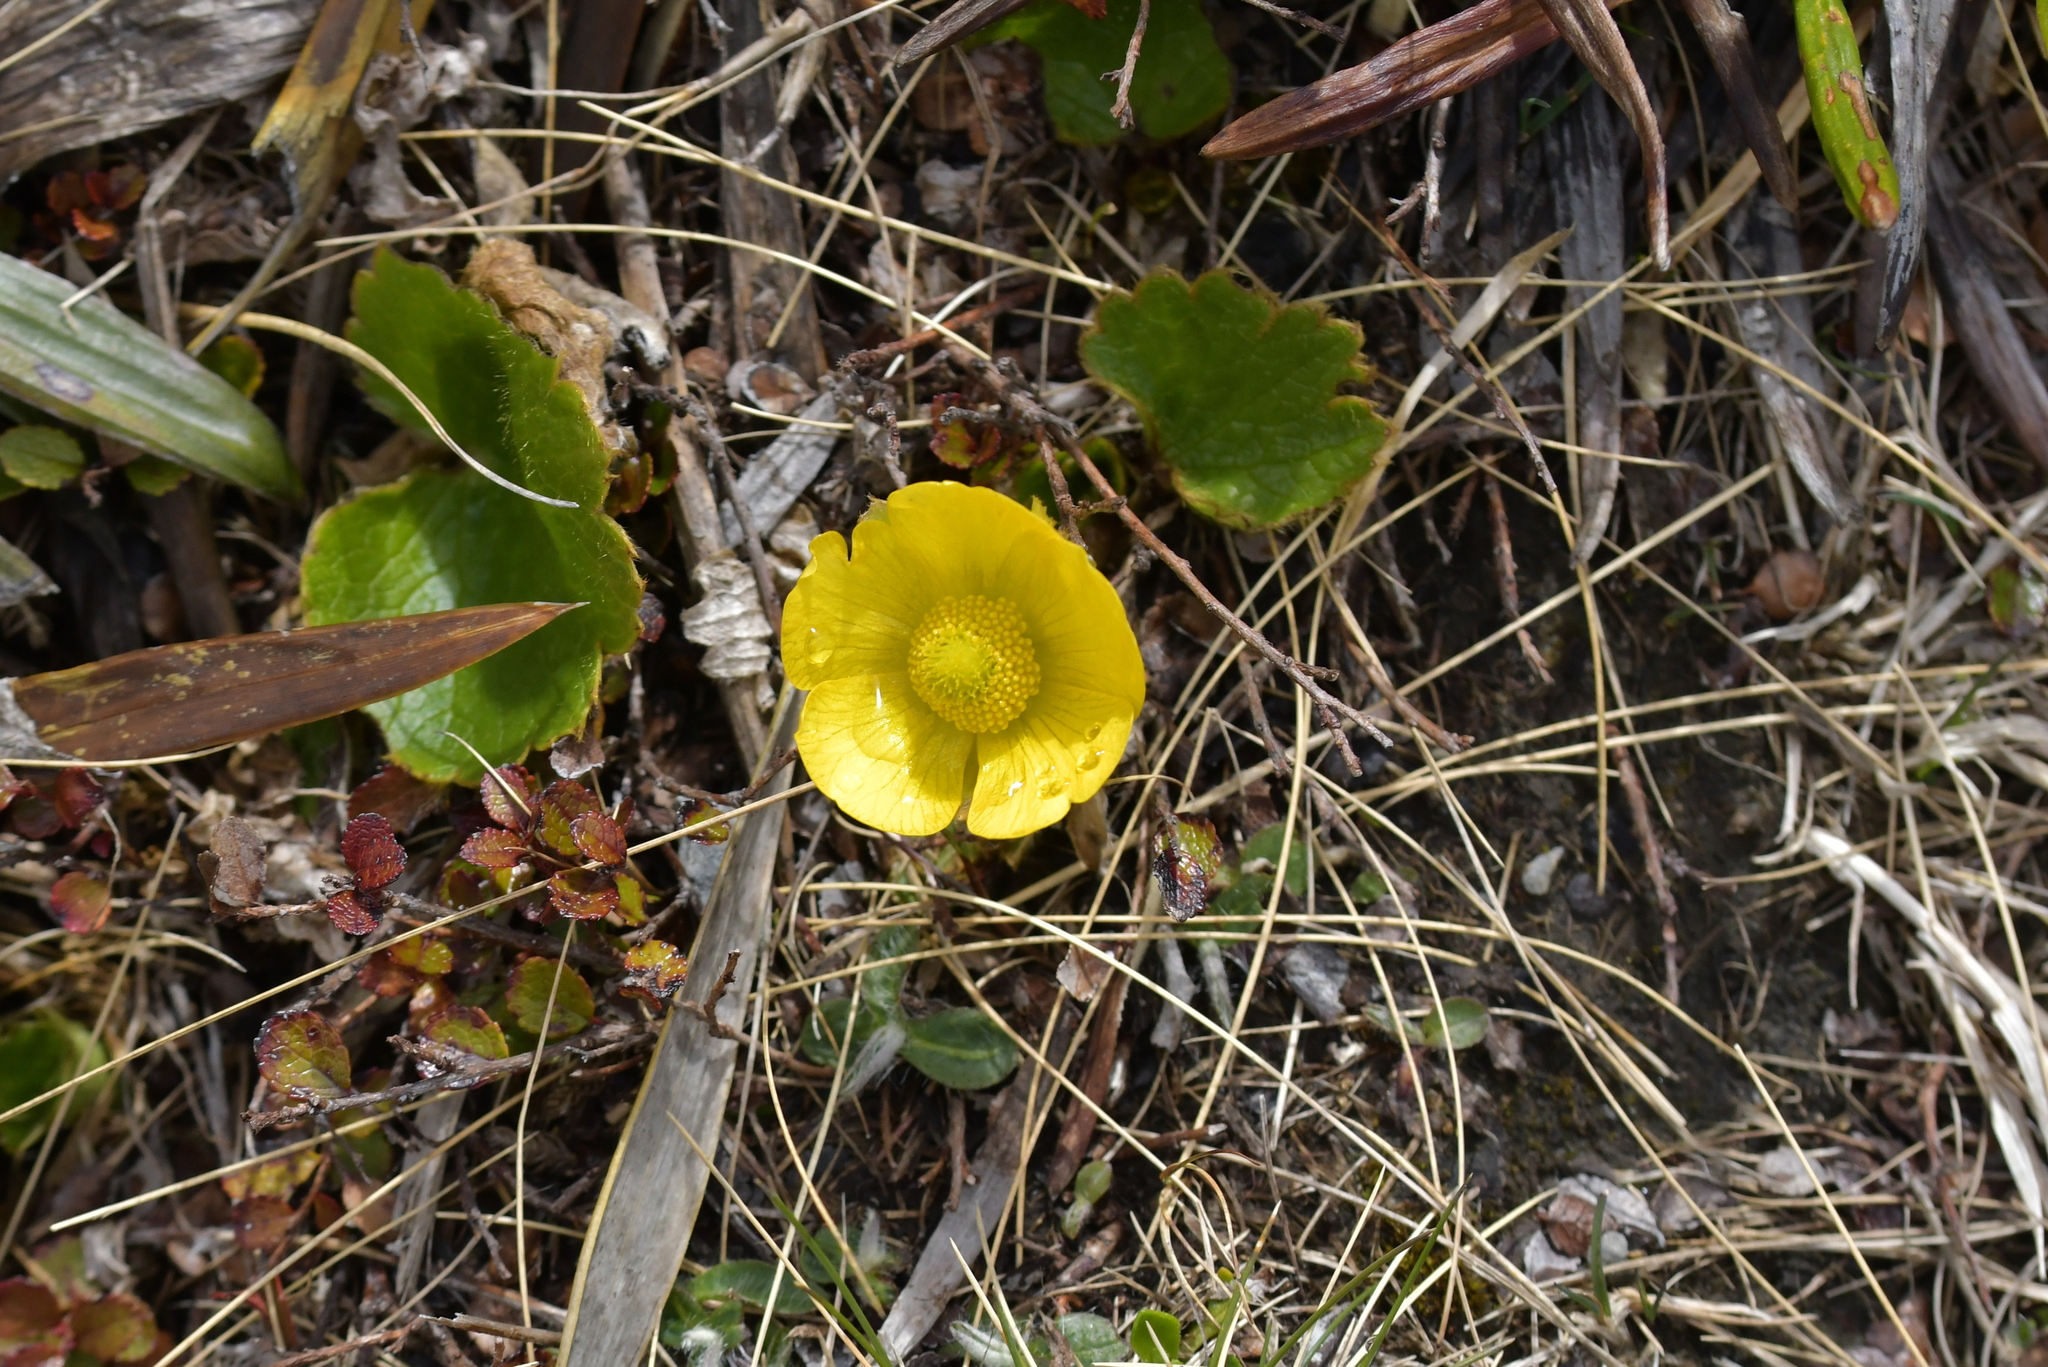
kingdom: Plantae
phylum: Tracheophyta
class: Magnoliopsida
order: Ranunculales
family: Ranunculaceae
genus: Ranunculus
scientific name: Ranunculus insignis
